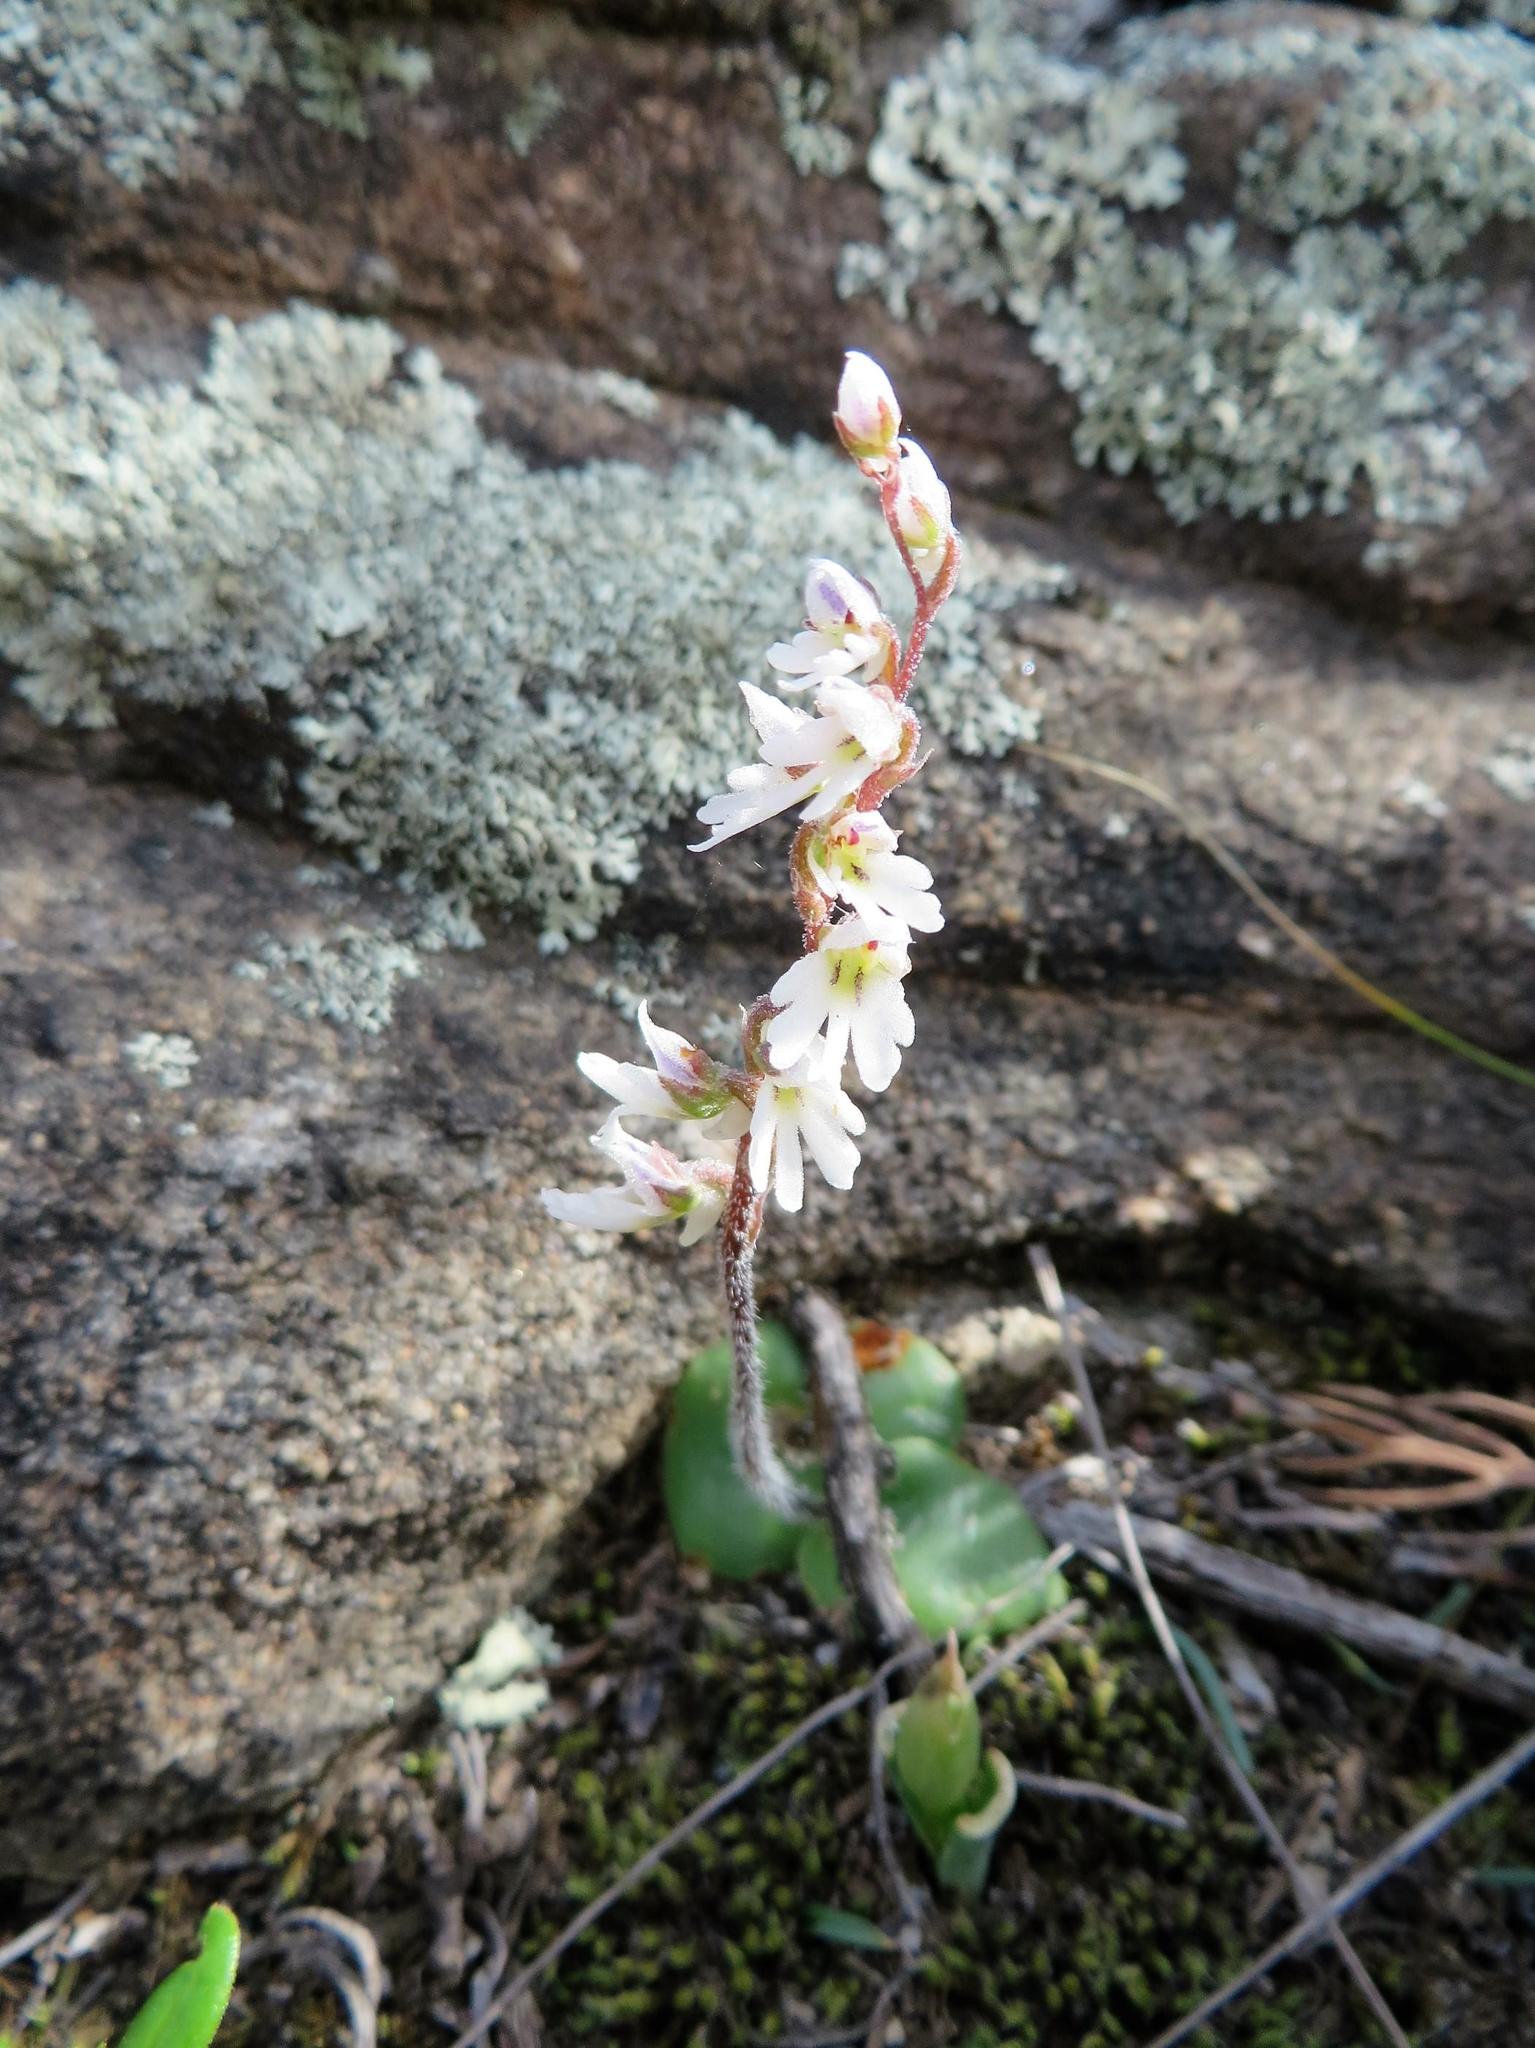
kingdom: Plantae
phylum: Tracheophyta
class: Liliopsida
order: Asparagales
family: Orchidaceae
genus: Holothrix
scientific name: Holothrix aspera
